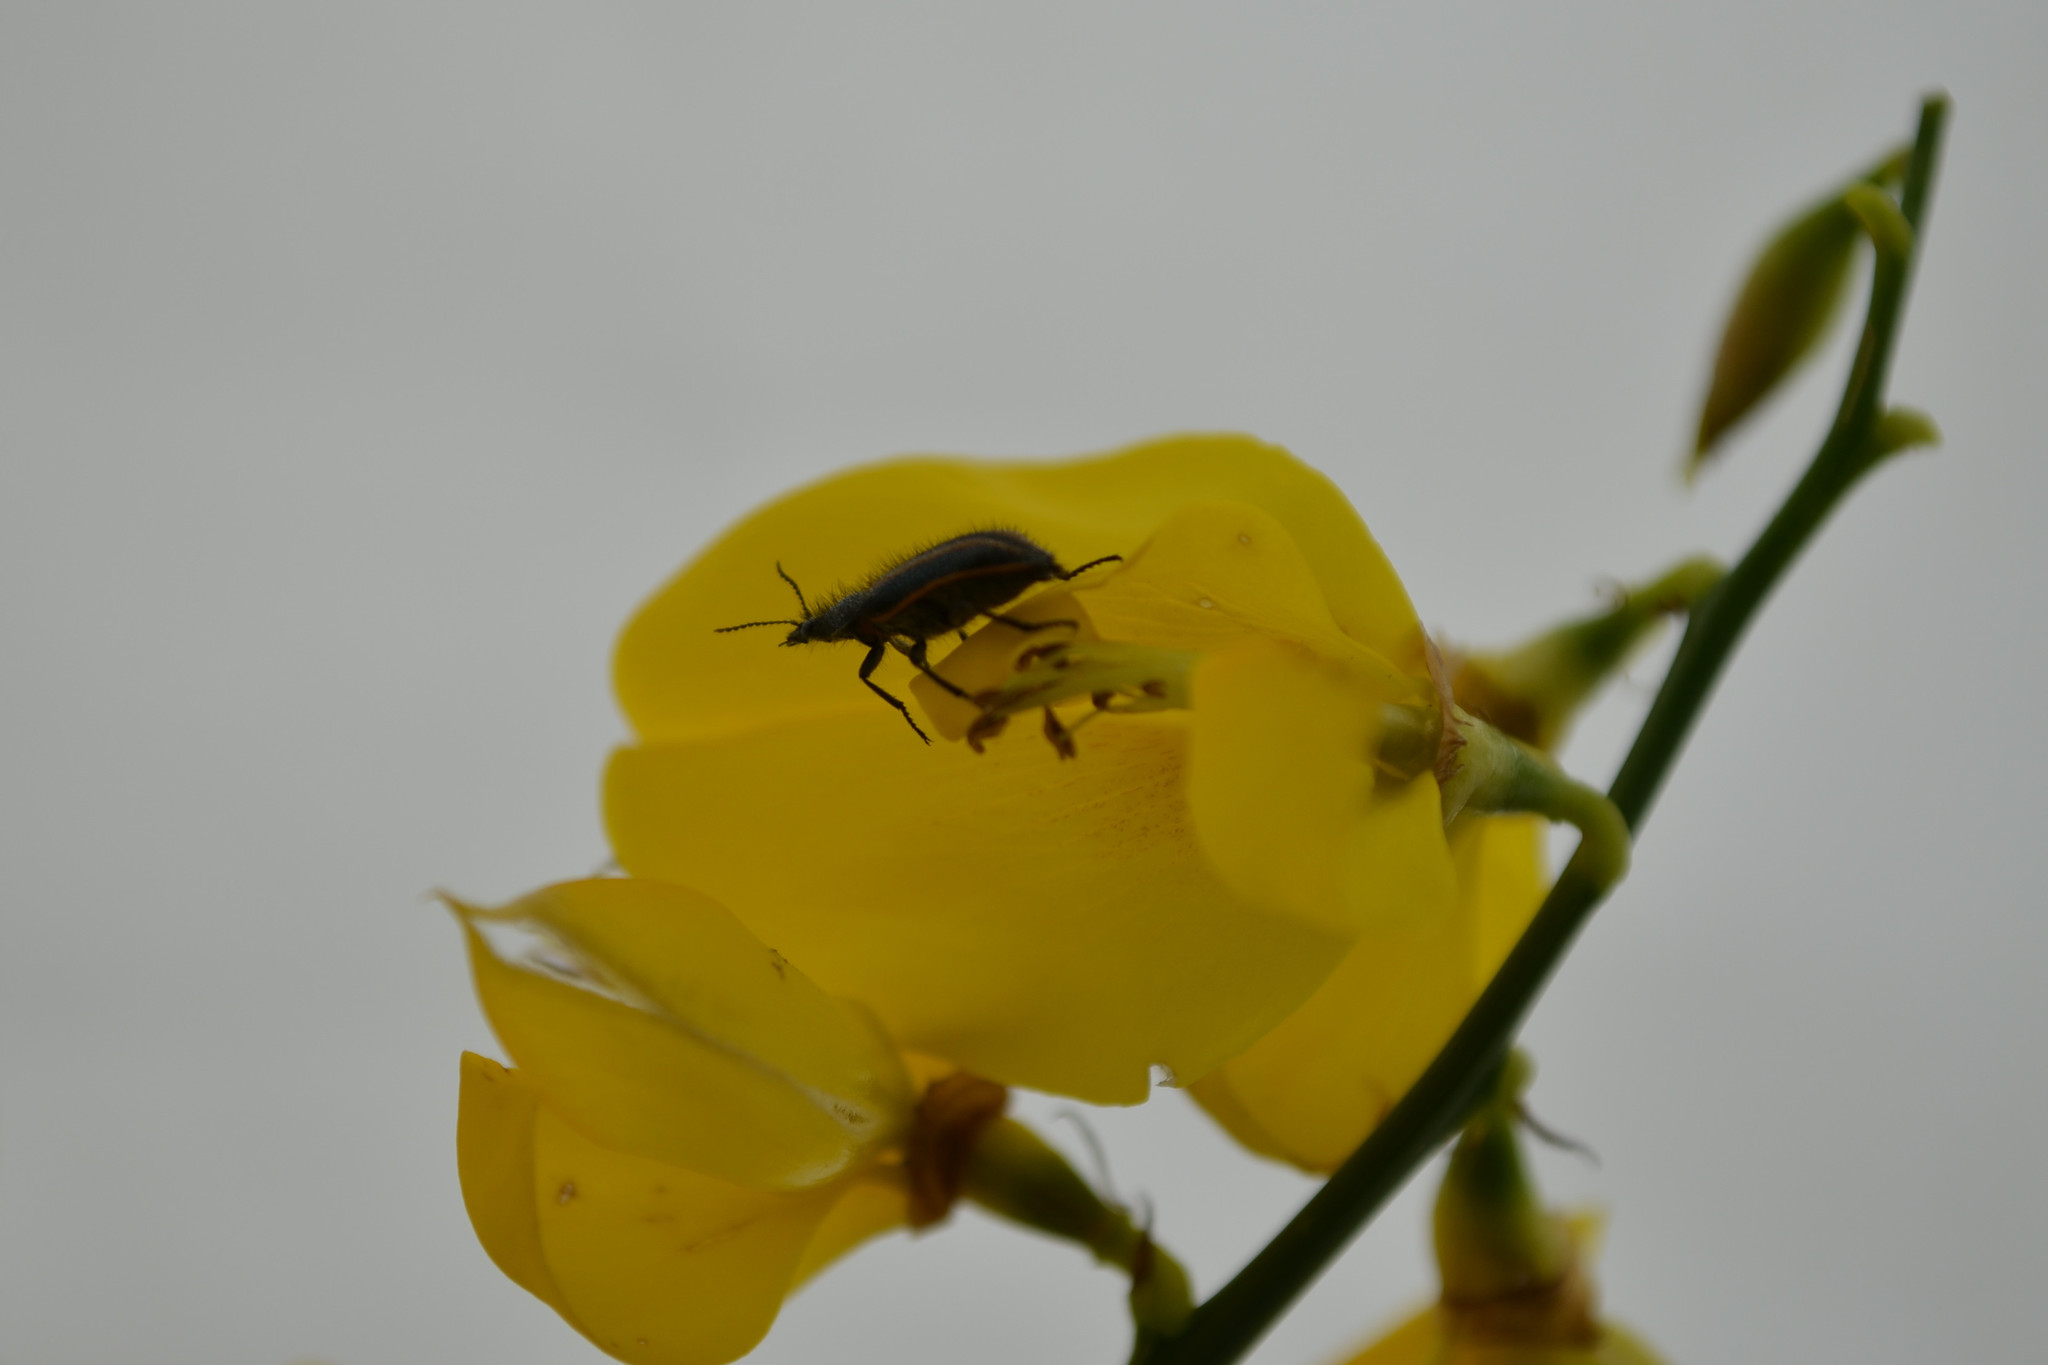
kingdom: Animalia
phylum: Arthropoda
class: Insecta
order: Coleoptera
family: Melyridae
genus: Astylus
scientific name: Astylus
